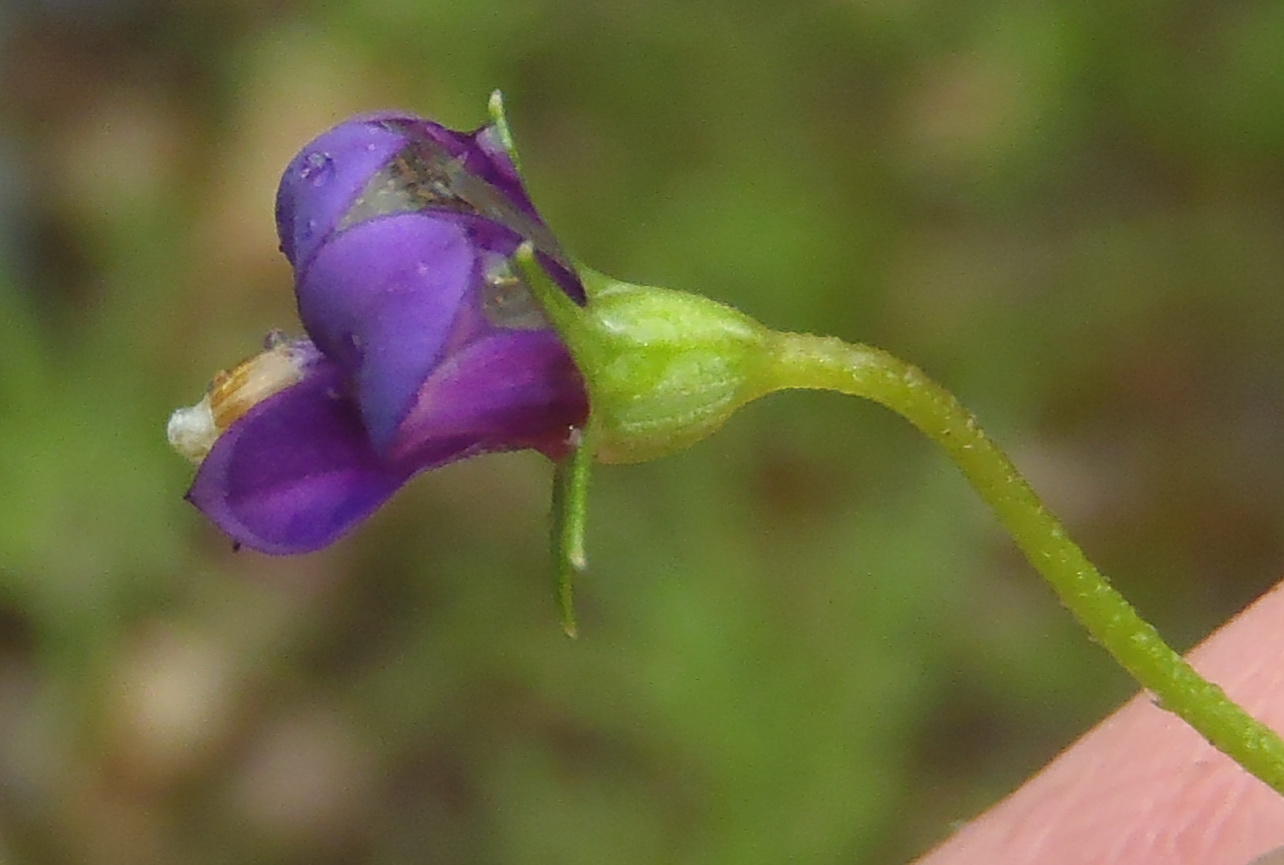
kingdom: Plantae
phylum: Tracheophyta
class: Magnoliopsida
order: Asterales
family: Campanulaceae
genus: Monopsis
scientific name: Monopsis simplex
